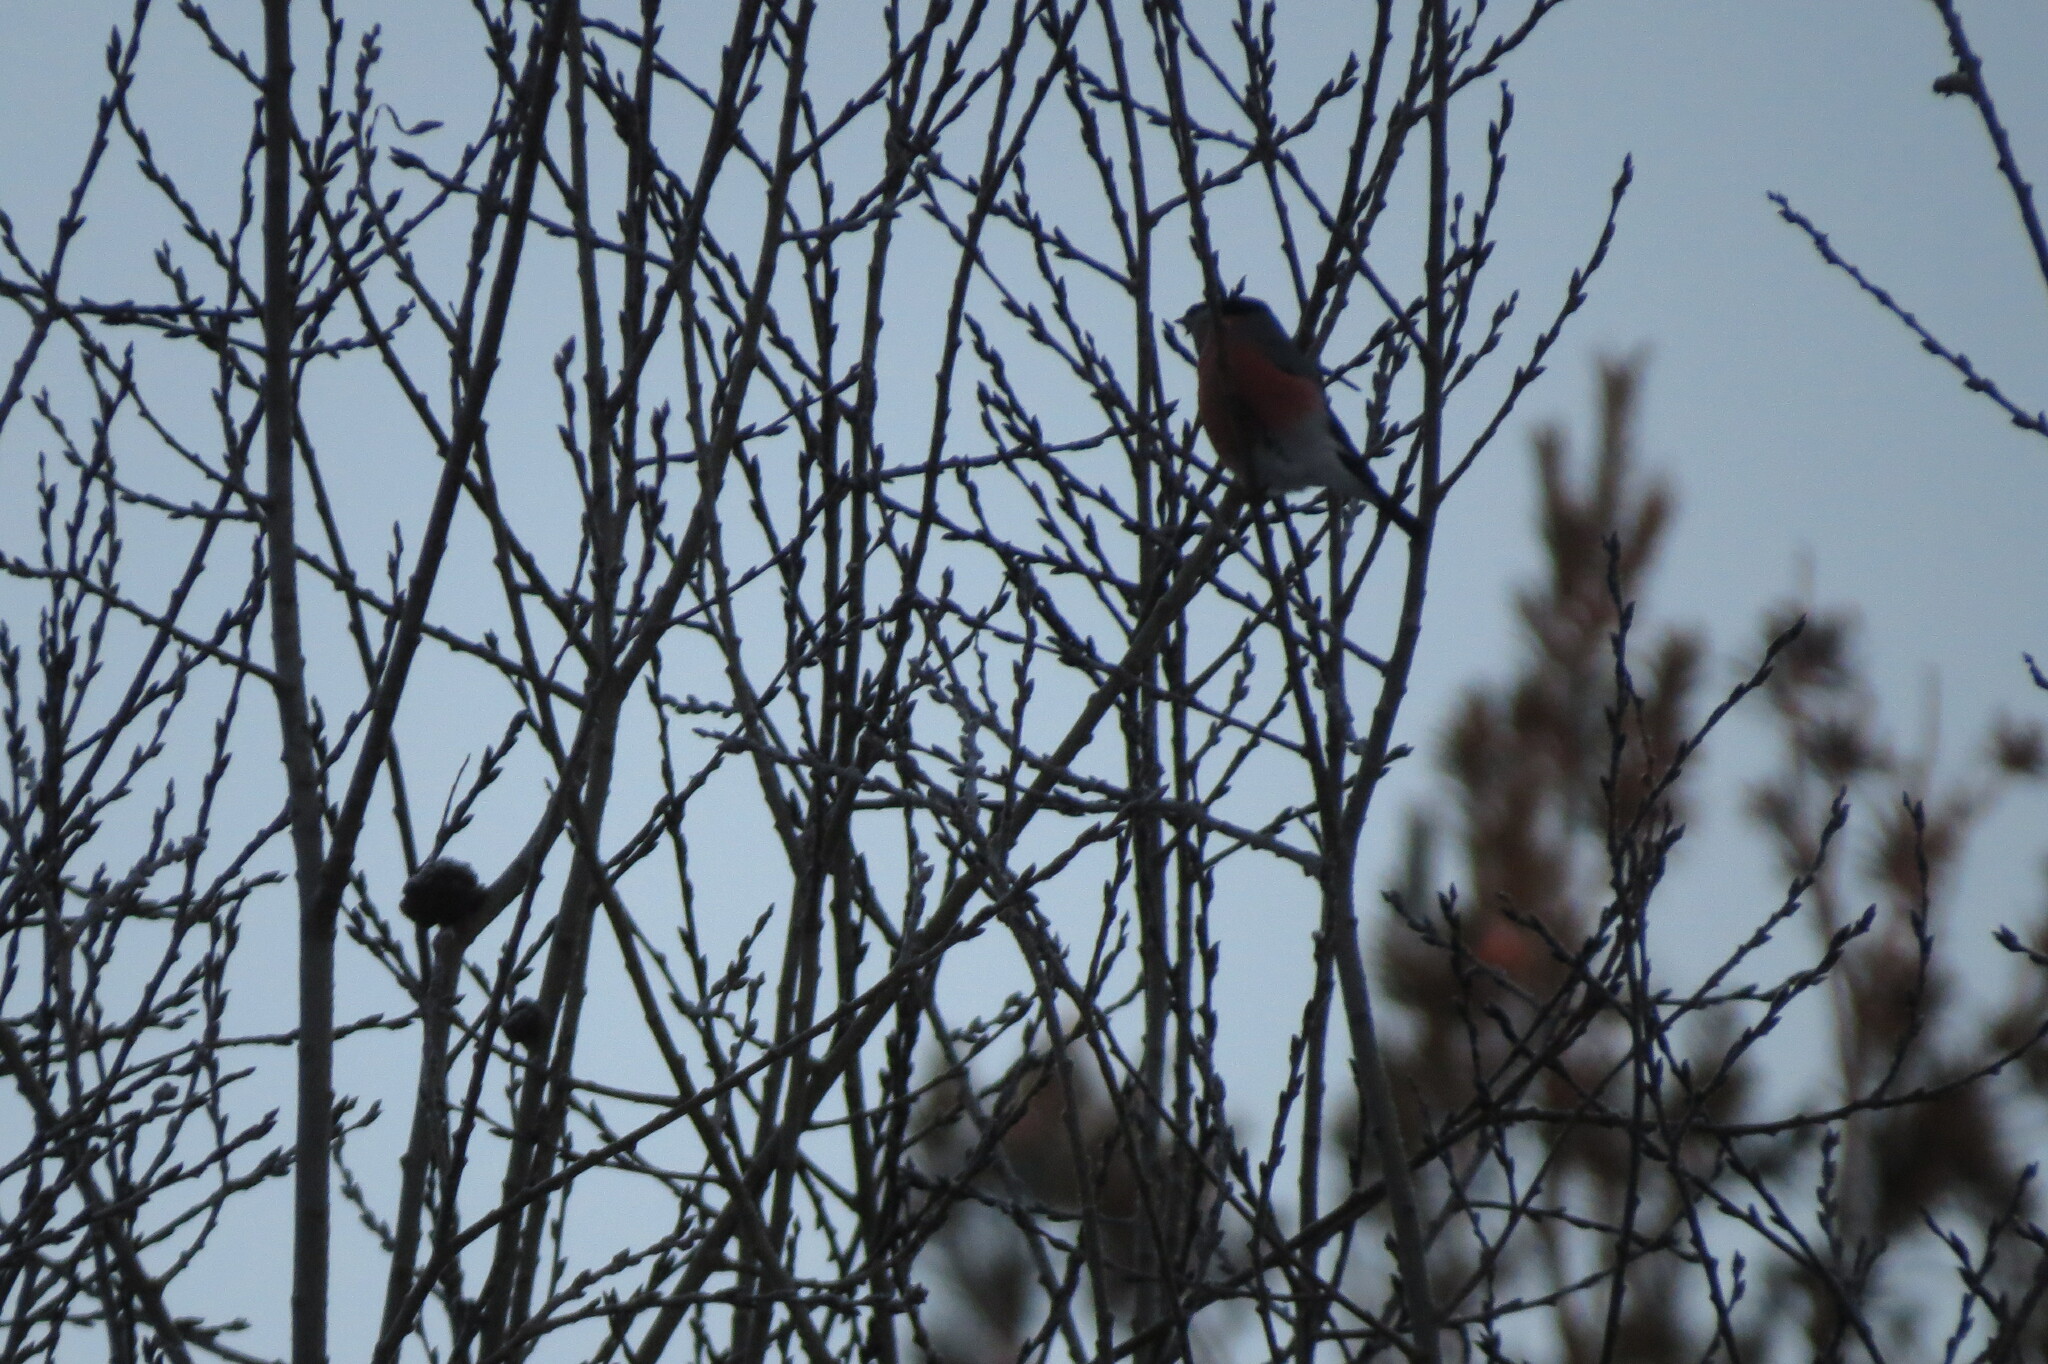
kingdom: Animalia
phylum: Chordata
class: Aves
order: Passeriformes
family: Fringillidae
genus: Pyrrhula
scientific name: Pyrrhula pyrrhula
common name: Eurasian bullfinch
